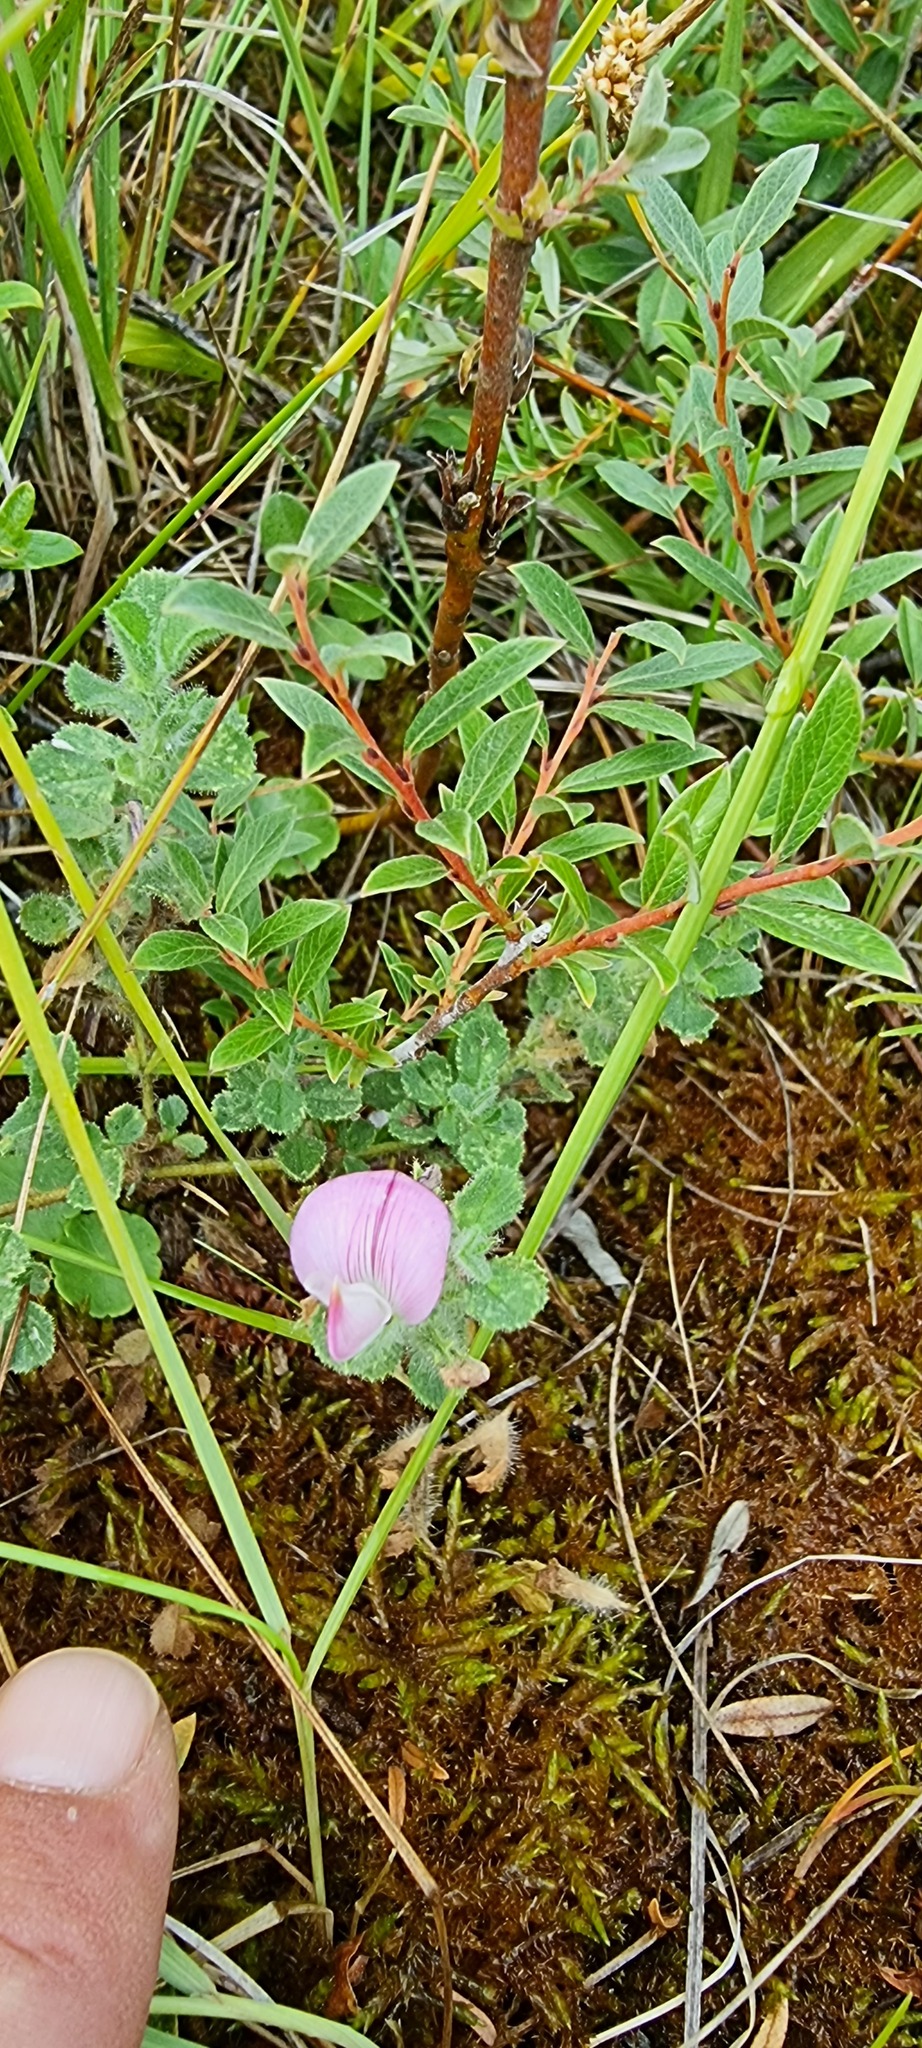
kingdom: Plantae
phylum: Tracheophyta
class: Magnoliopsida
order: Fabales
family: Fabaceae
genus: Ononis
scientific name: Ononis spinosa
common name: Spiny restharrow
